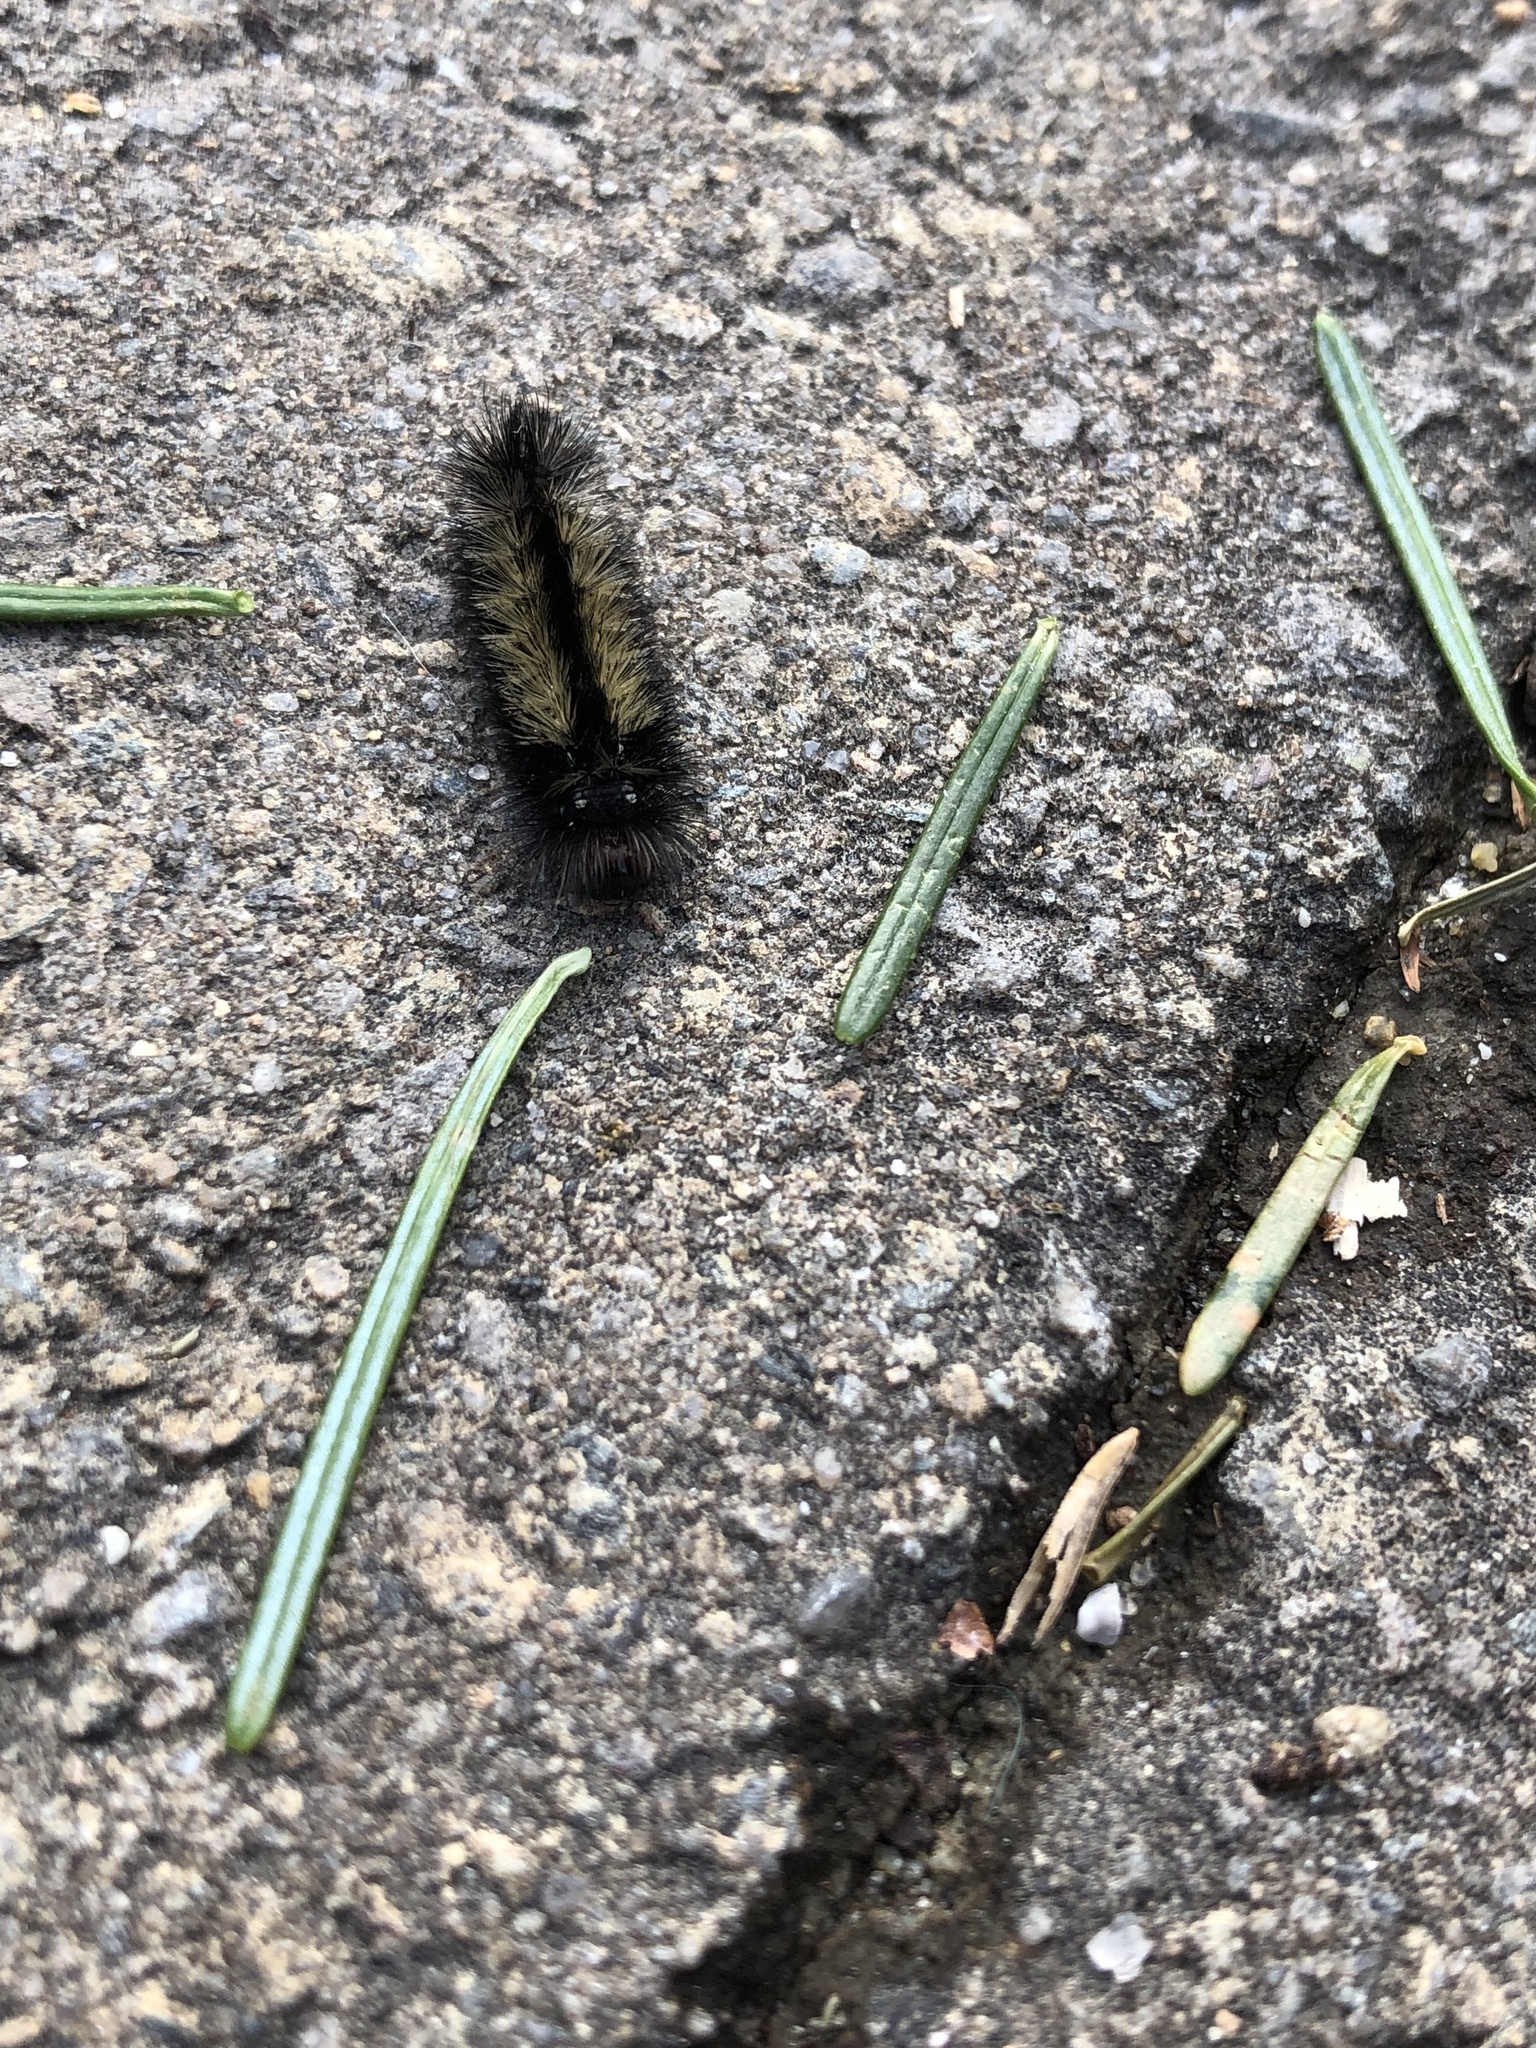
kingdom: Animalia
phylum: Arthropoda
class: Insecta
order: Lepidoptera
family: Erebidae
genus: Ctenucha
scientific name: Ctenucha virginica
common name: Virginia ctenucha moth
